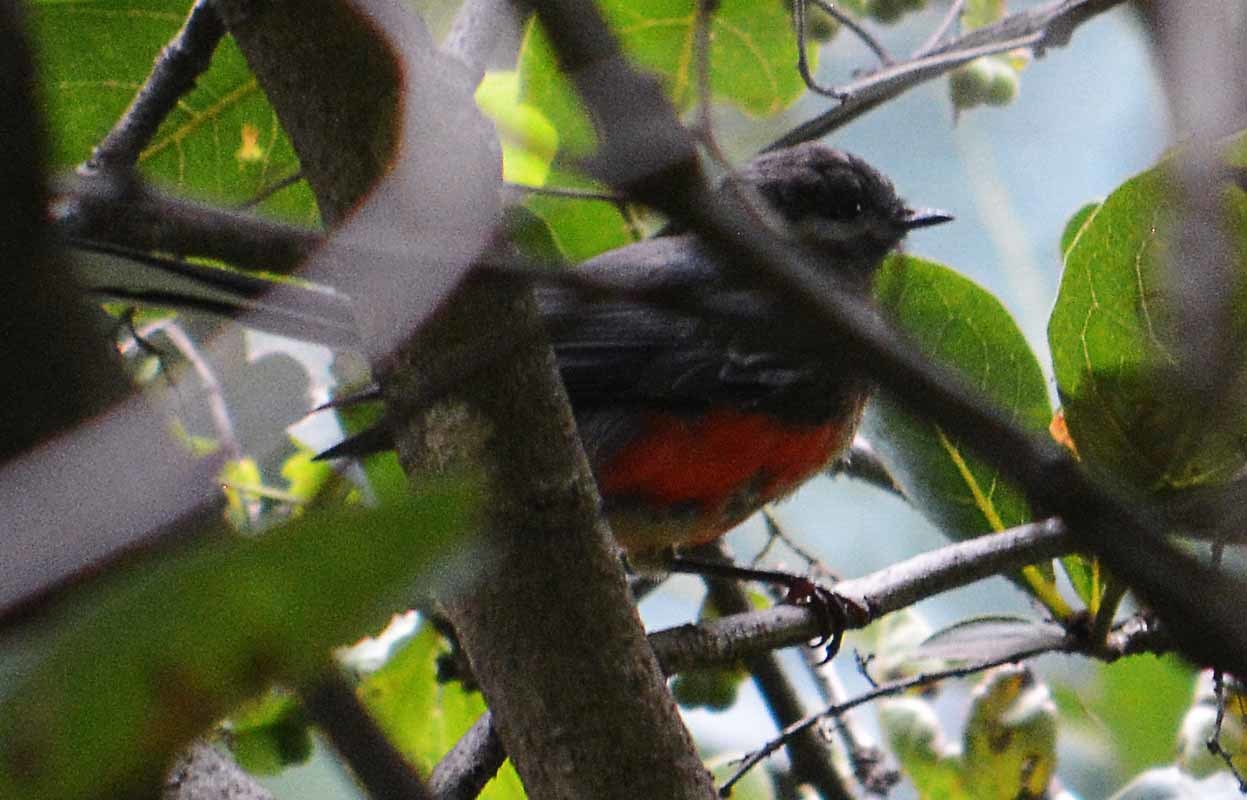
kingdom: Animalia
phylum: Chordata
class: Aves
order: Passeriformes
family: Parulidae
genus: Myioborus
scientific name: Myioborus miniatus
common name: Slate-throated redstart
